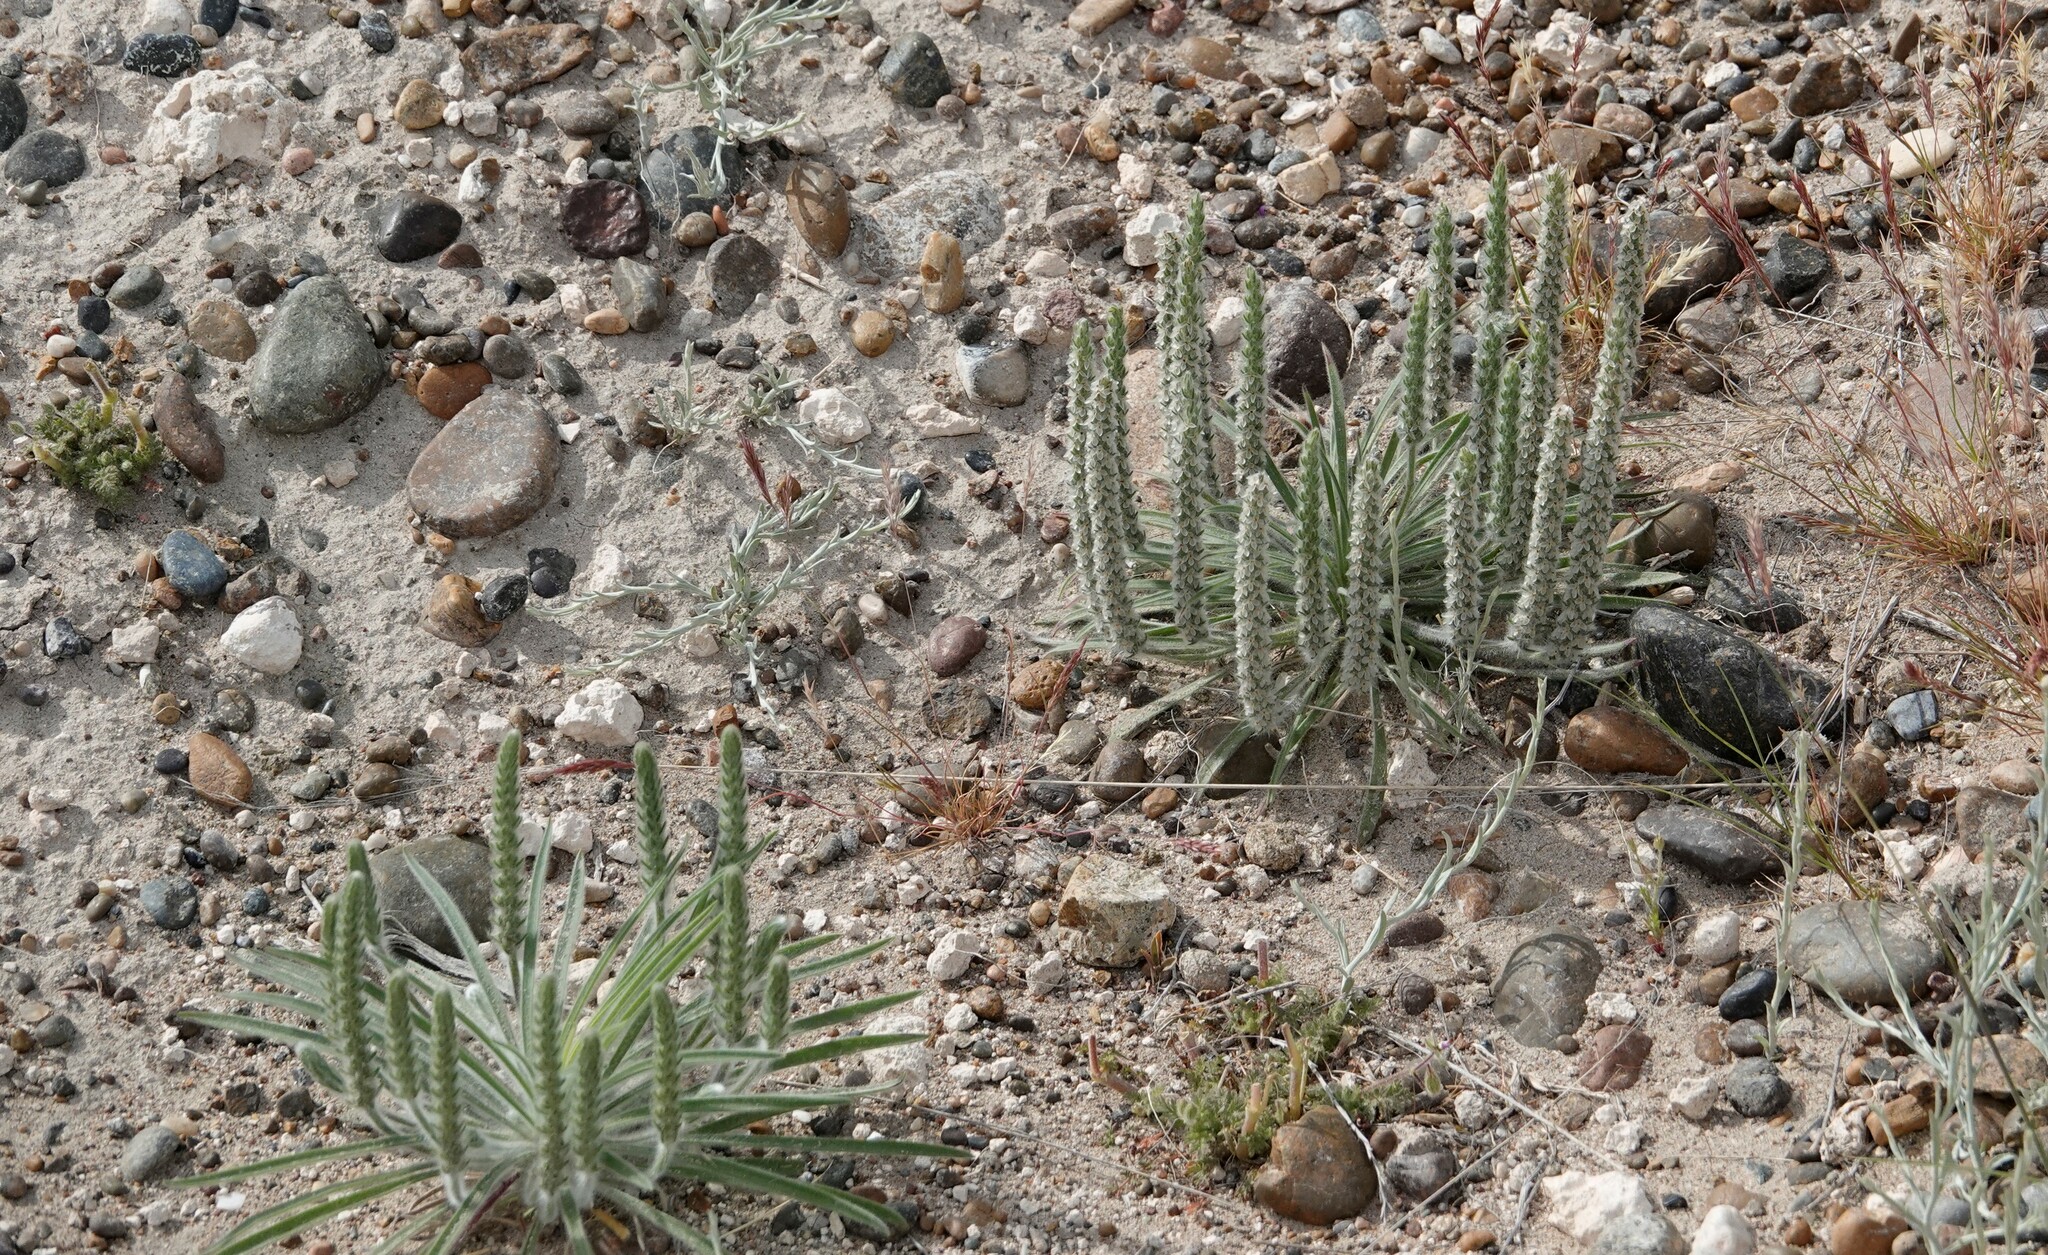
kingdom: Plantae
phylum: Tracheophyta
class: Magnoliopsida
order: Lamiales
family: Plantaginaceae
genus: Plantago
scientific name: Plantago patagonica
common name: Patagonia indian-wheat
